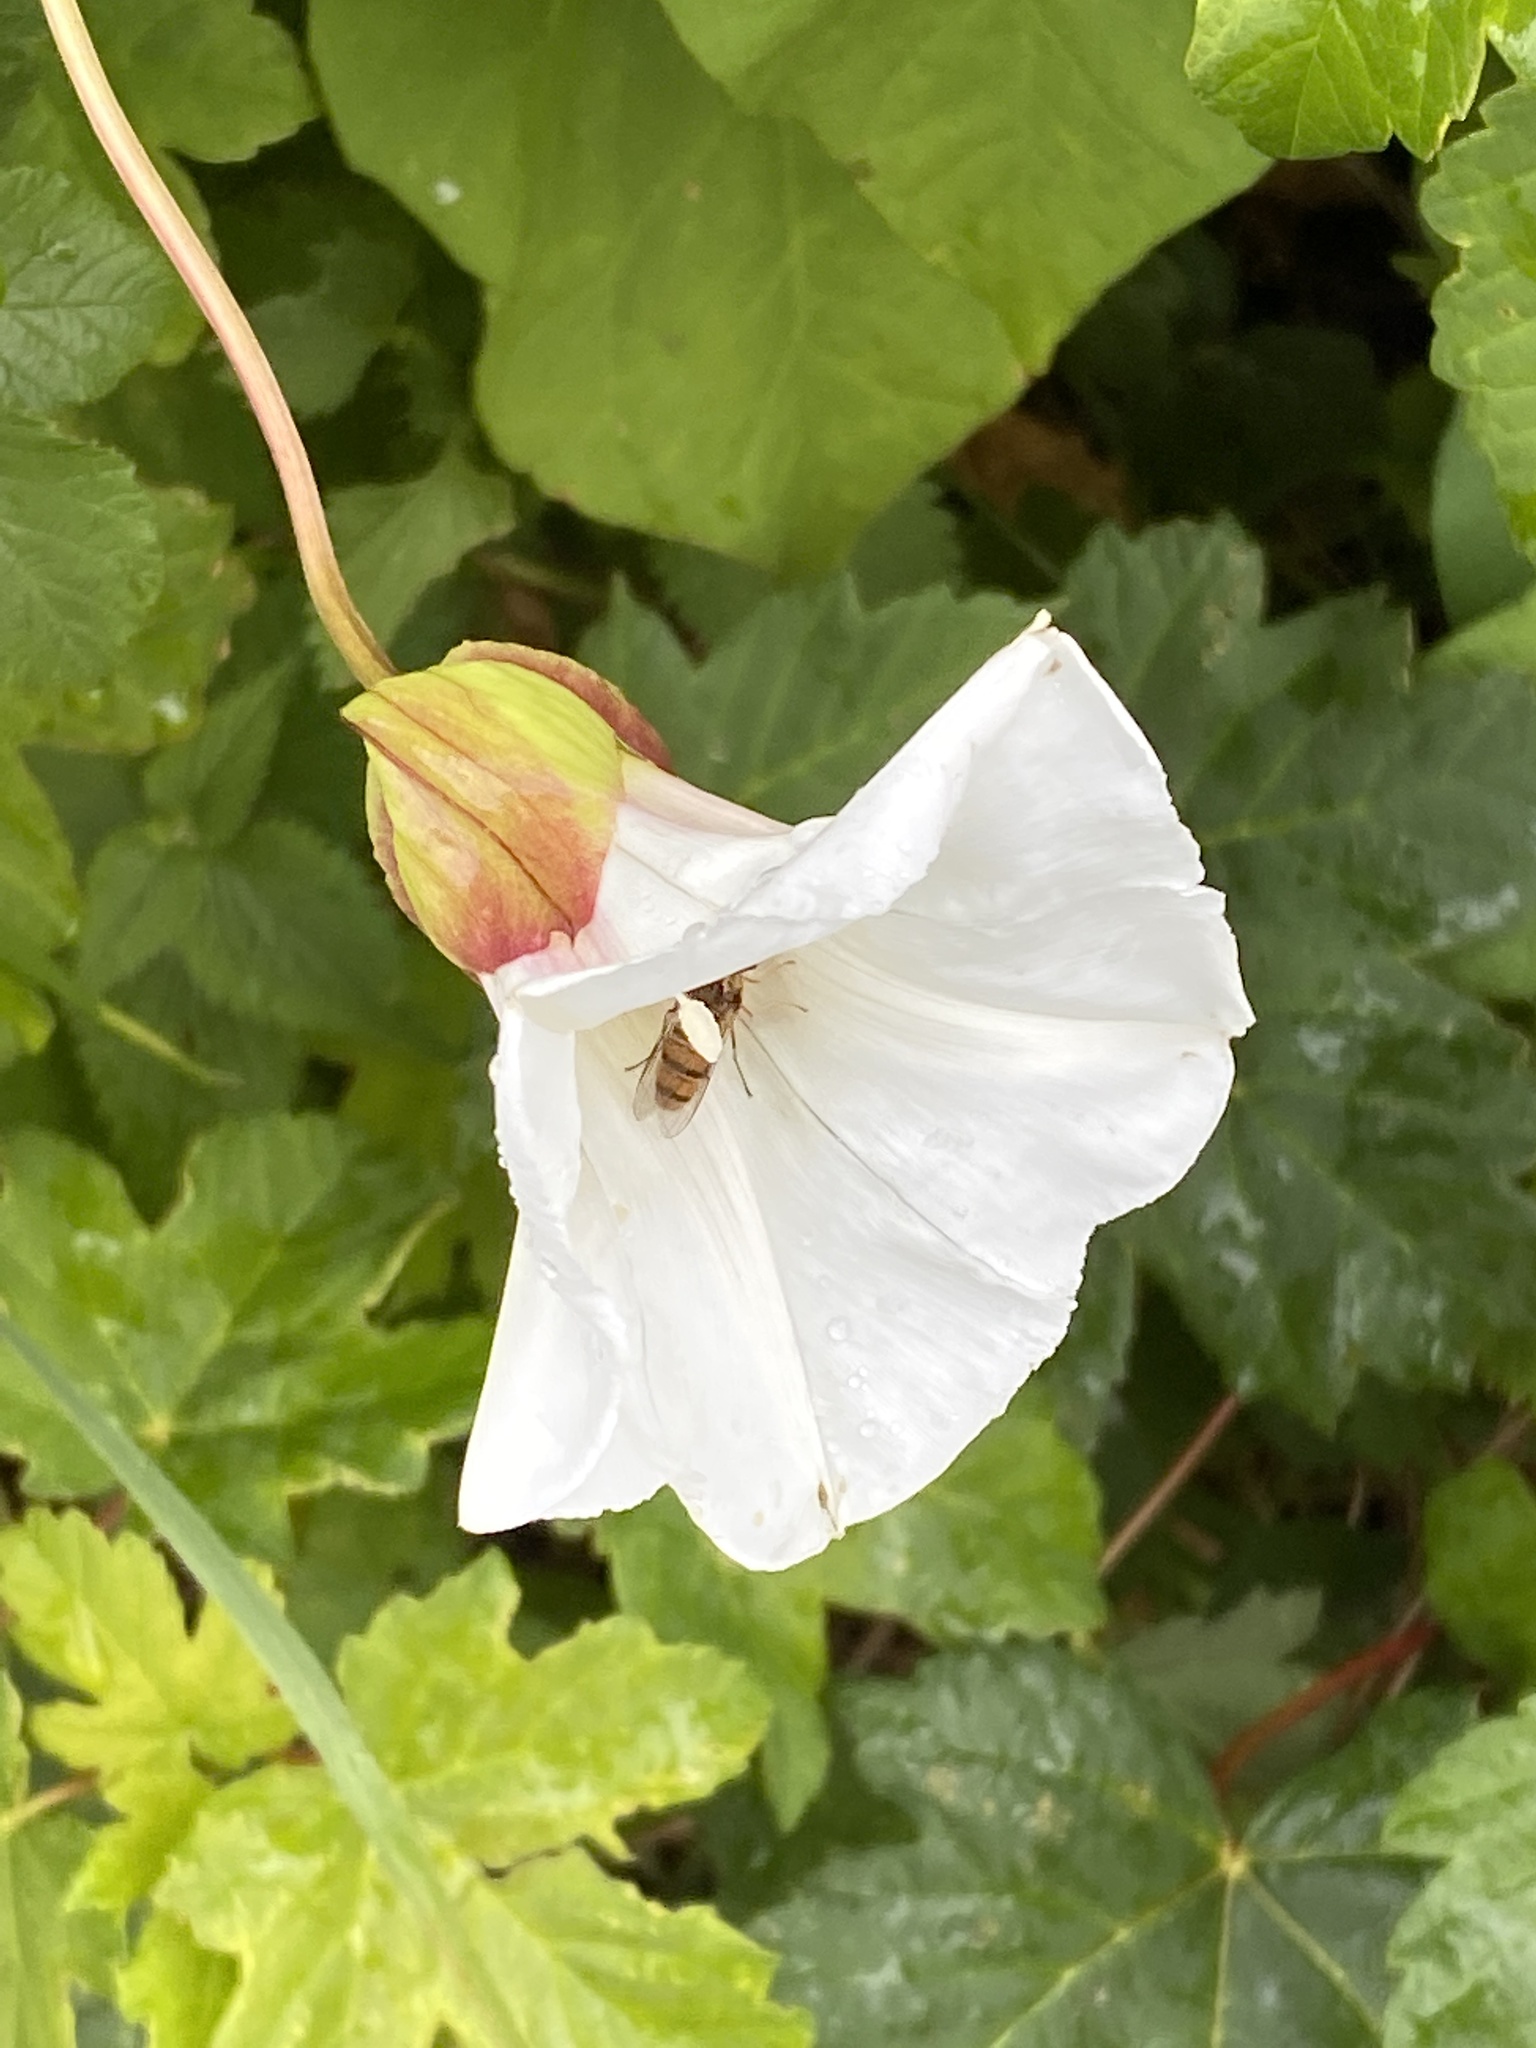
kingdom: Plantae
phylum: Tracheophyta
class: Magnoliopsida
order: Solanales
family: Convolvulaceae
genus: Calystegia
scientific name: Calystegia silvatica
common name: Large bindweed
